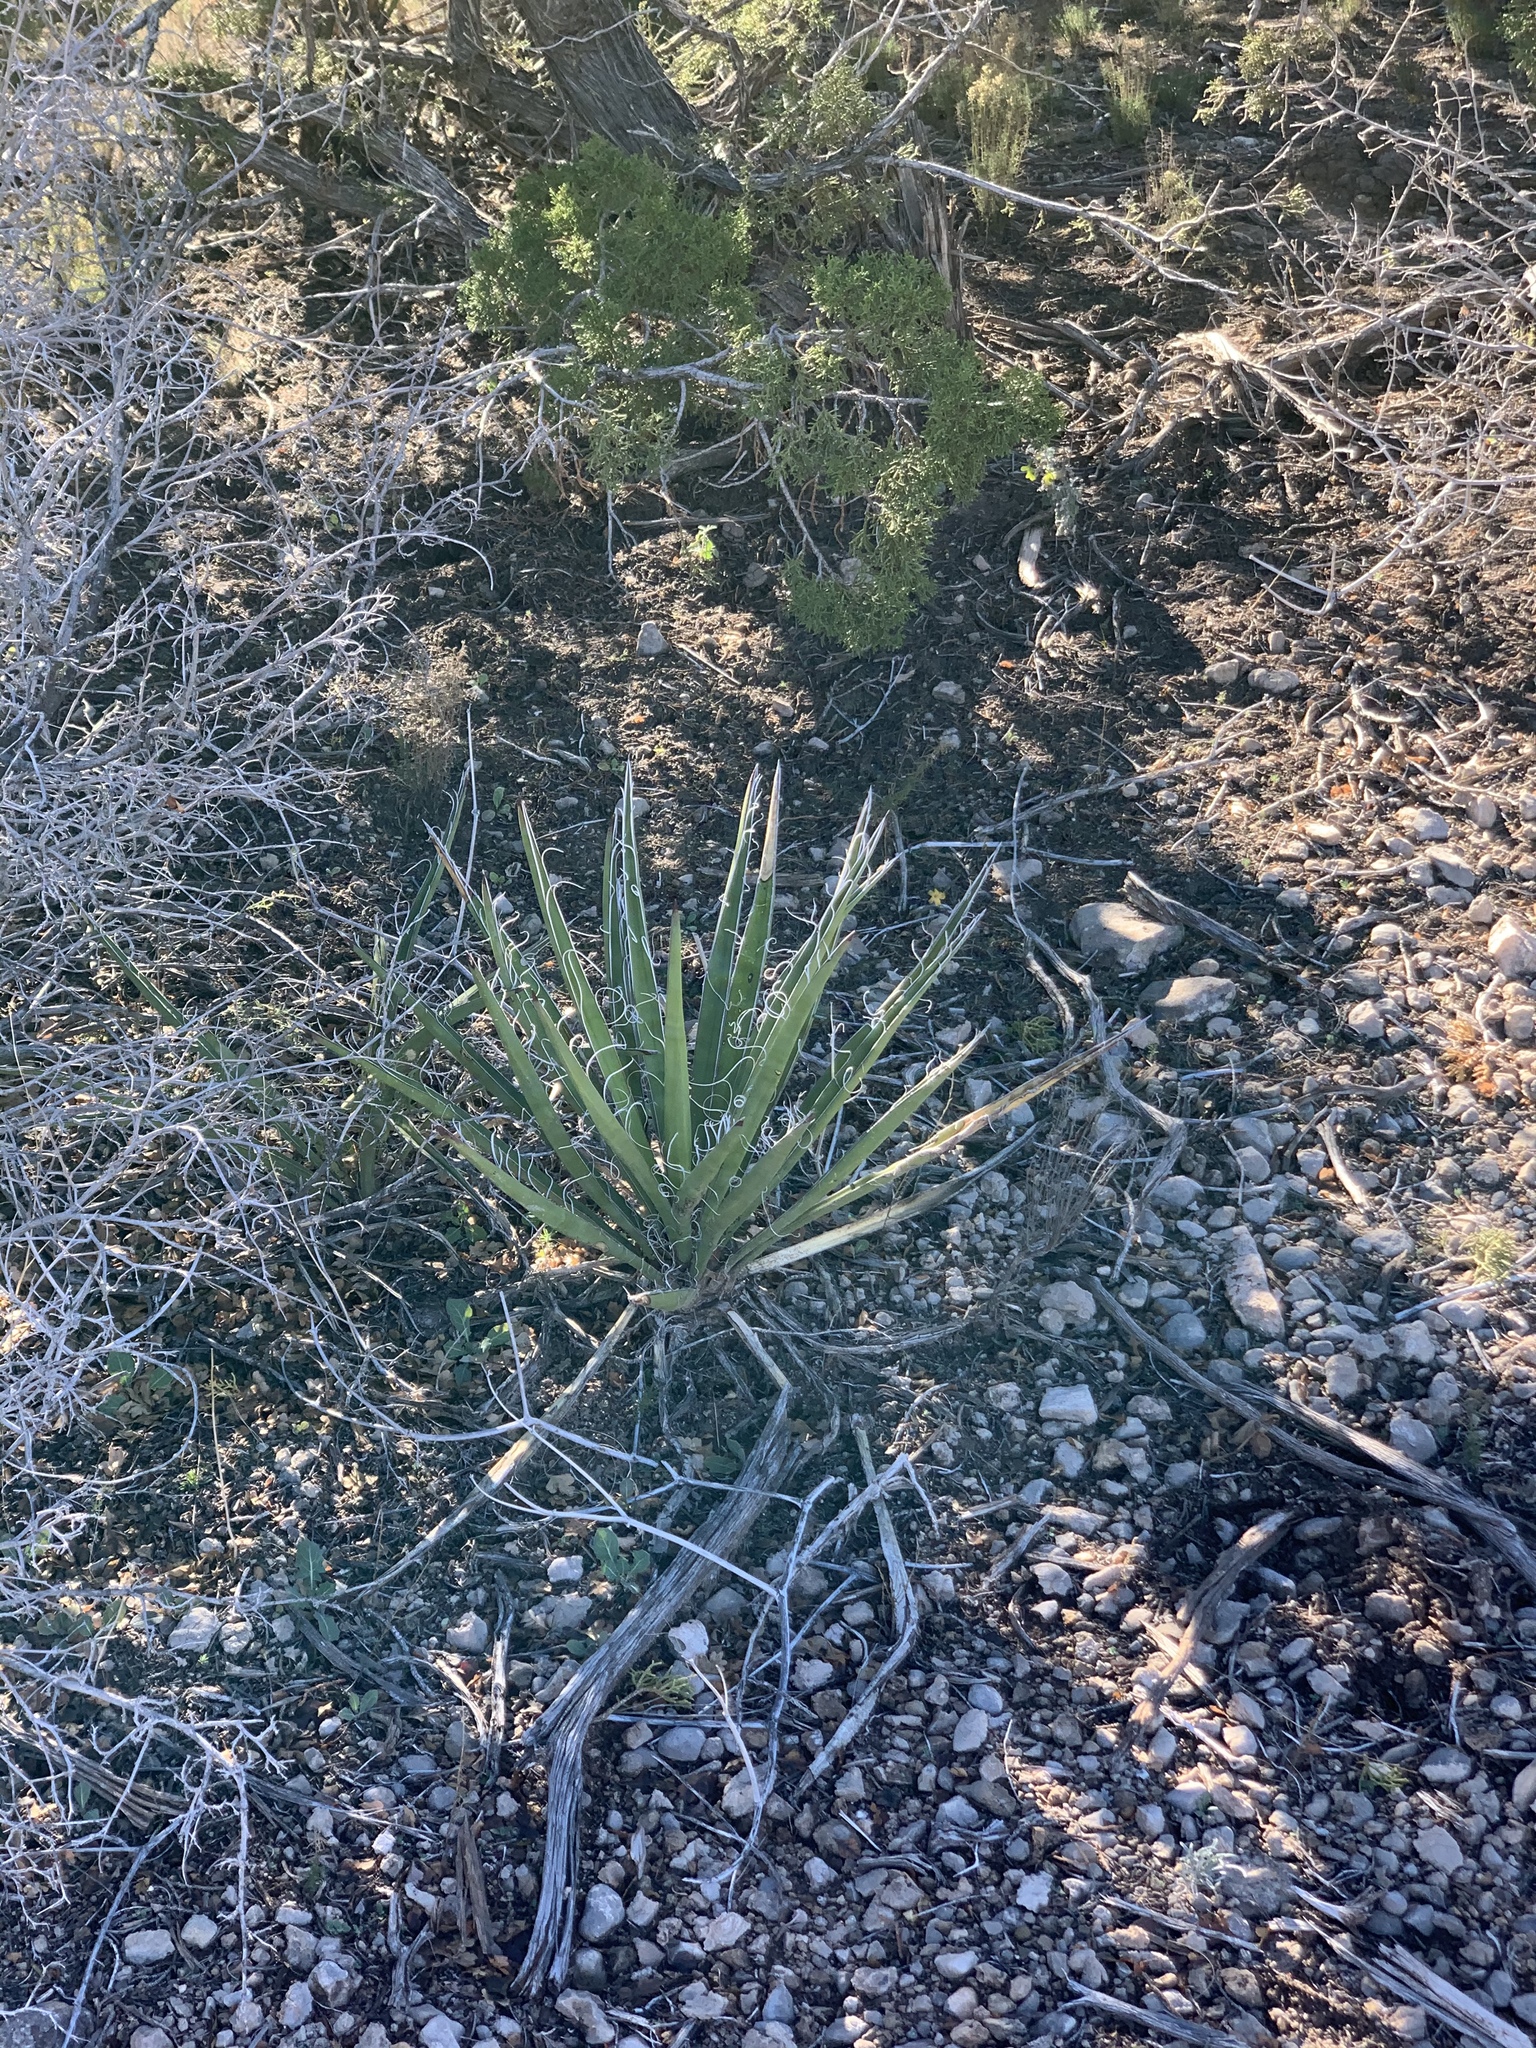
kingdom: Plantae
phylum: Tracheophyta
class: Liliopsida
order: Asparagales
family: Asparagaceae
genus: Yucca
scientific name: Yucca baccata
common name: Banana yucca
